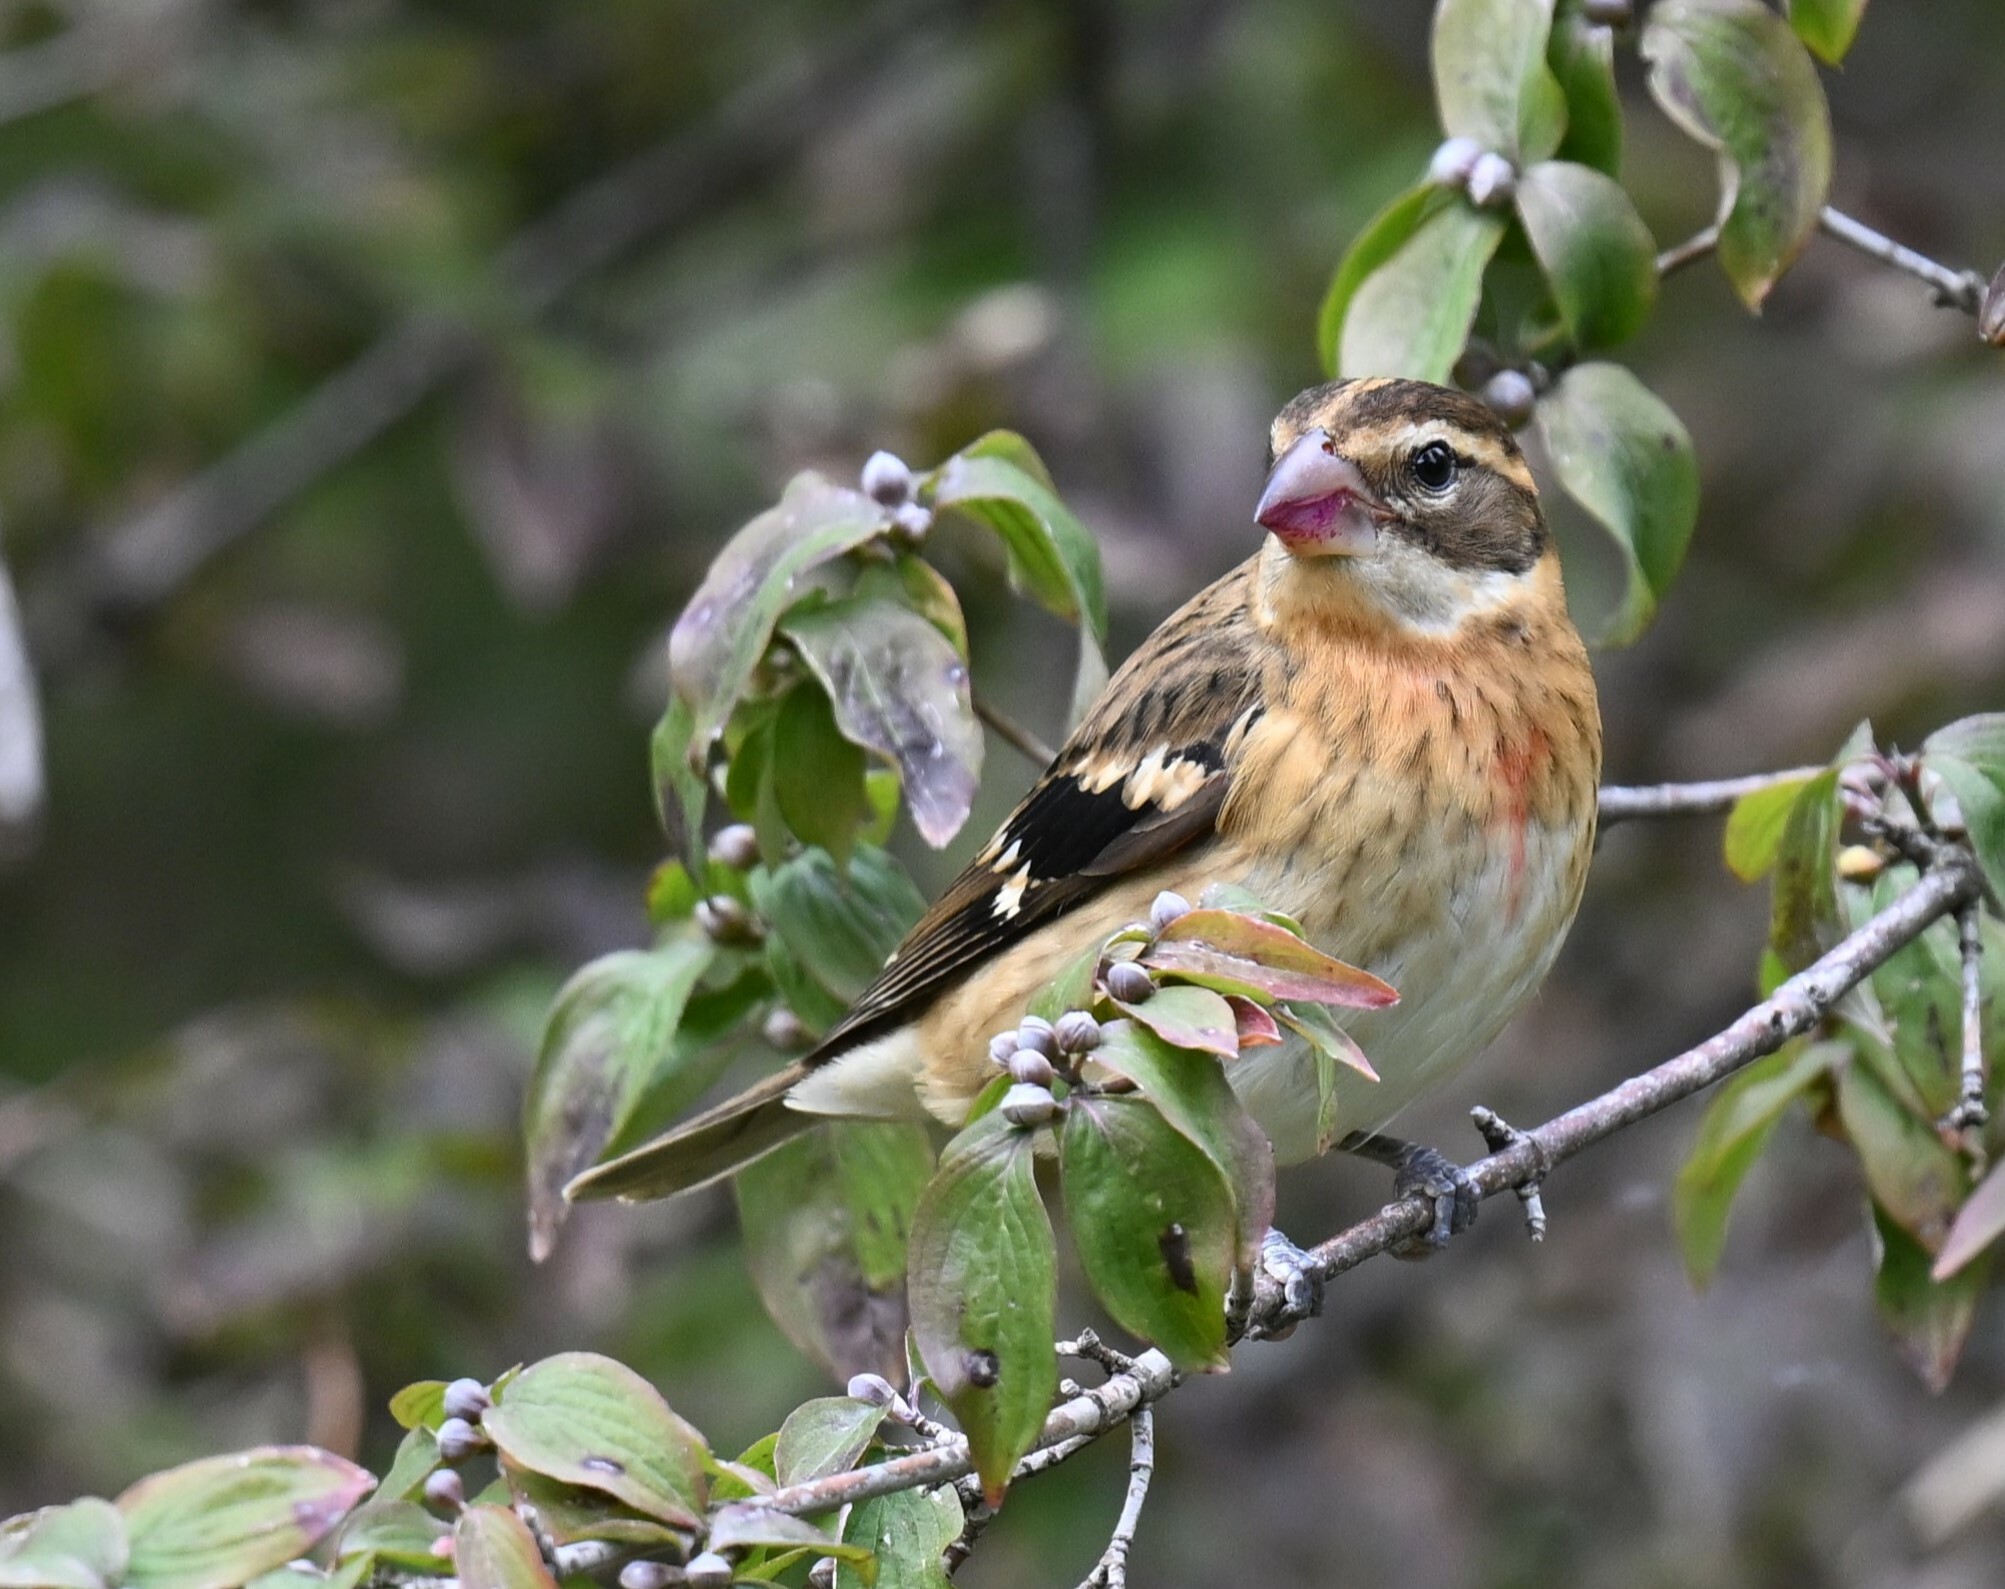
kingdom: Animalia
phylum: Chordata
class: Aves
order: Passeriformes
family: Cardinalidae
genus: Pheucticus
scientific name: Pheucticus ludovicianus
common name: Rose-breasted grosbeak
